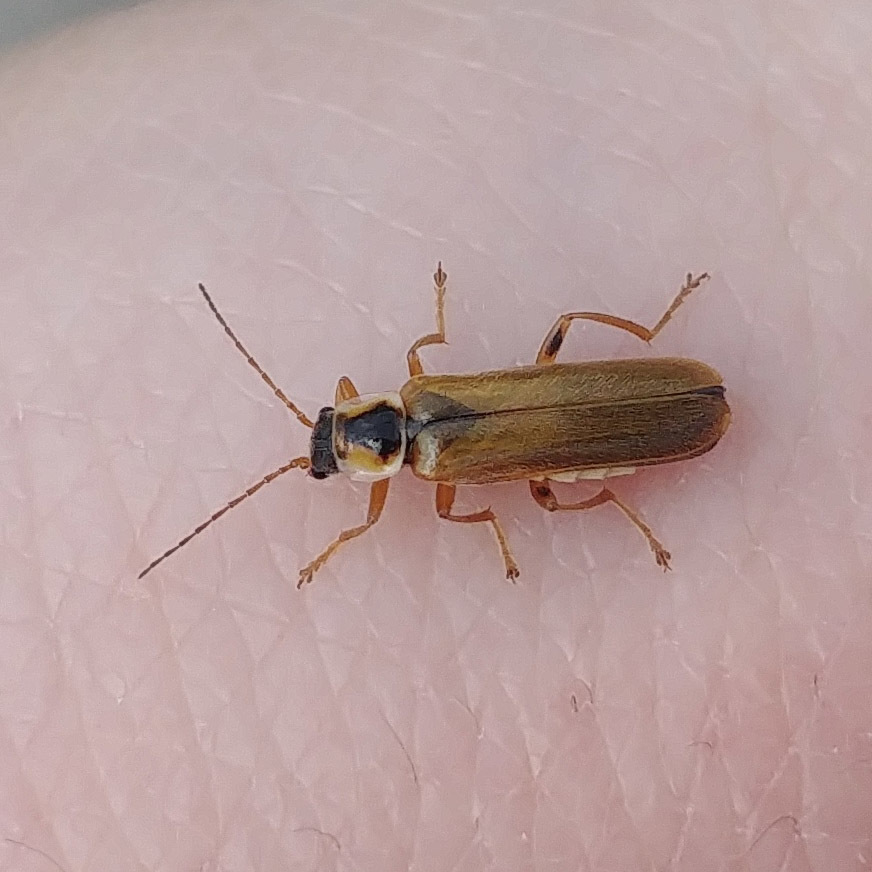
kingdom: Animalia
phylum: Arthropoda
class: Insecta
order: Coleoptera
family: Cantharidae
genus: Cantharis
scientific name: Cantharis decipiens
